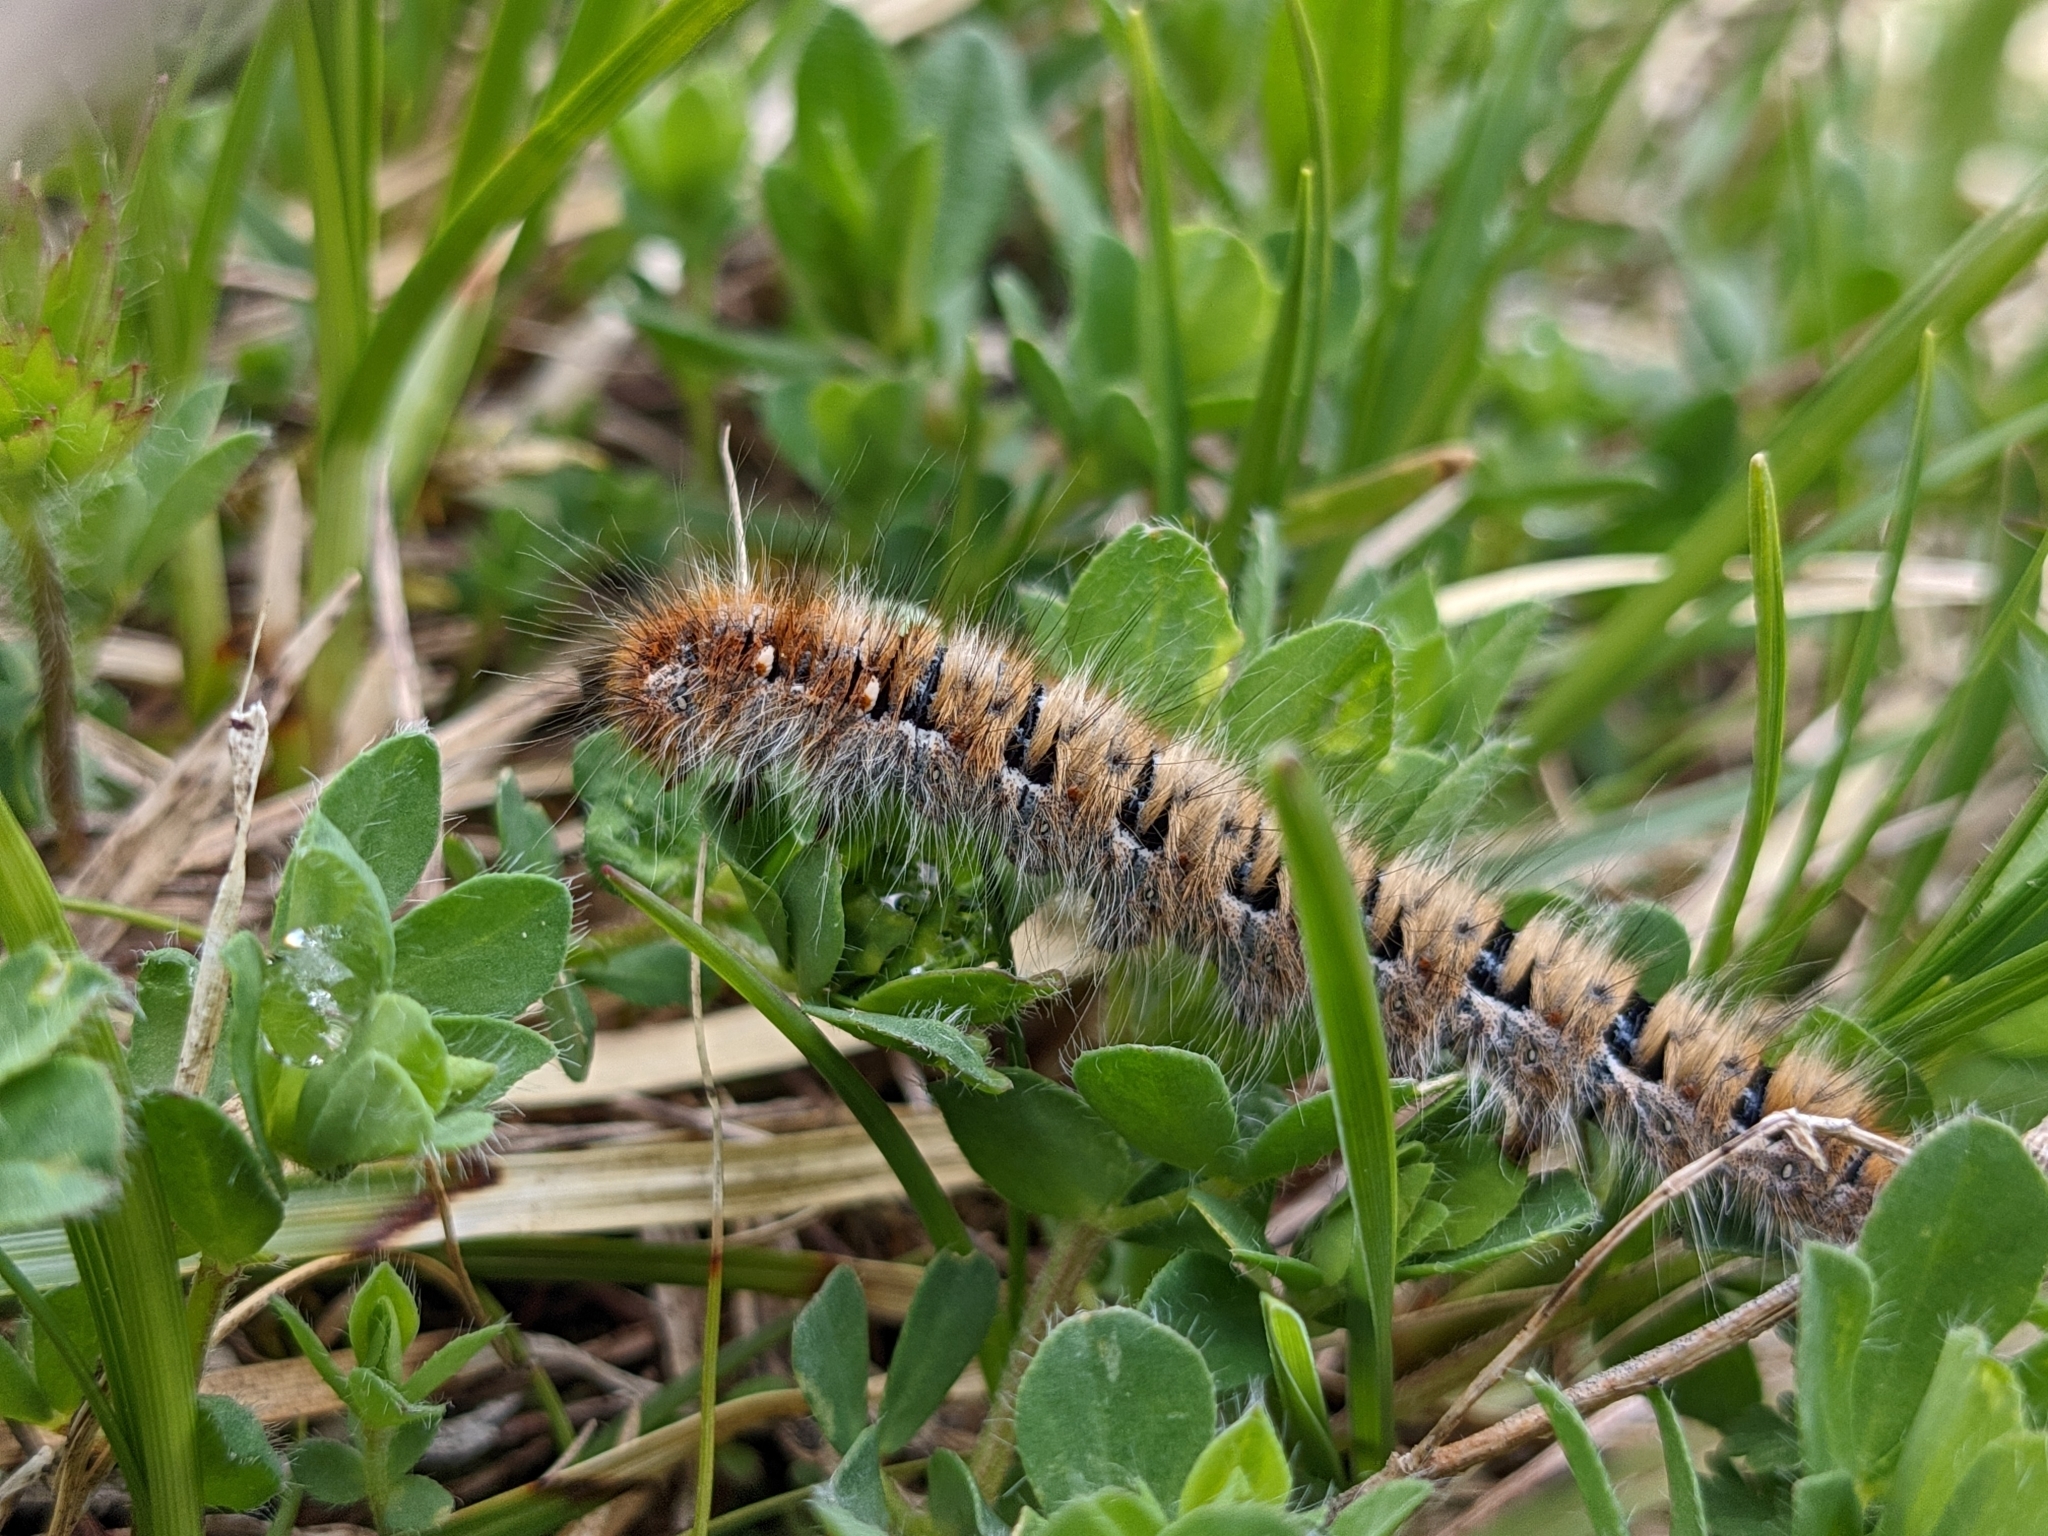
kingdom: Animalia
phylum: Arthropoda
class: Insecta
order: Lepidoptera
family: Lasiocampidae
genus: Lasiocampa
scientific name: Lasiocampa quercus
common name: Oak eggar
